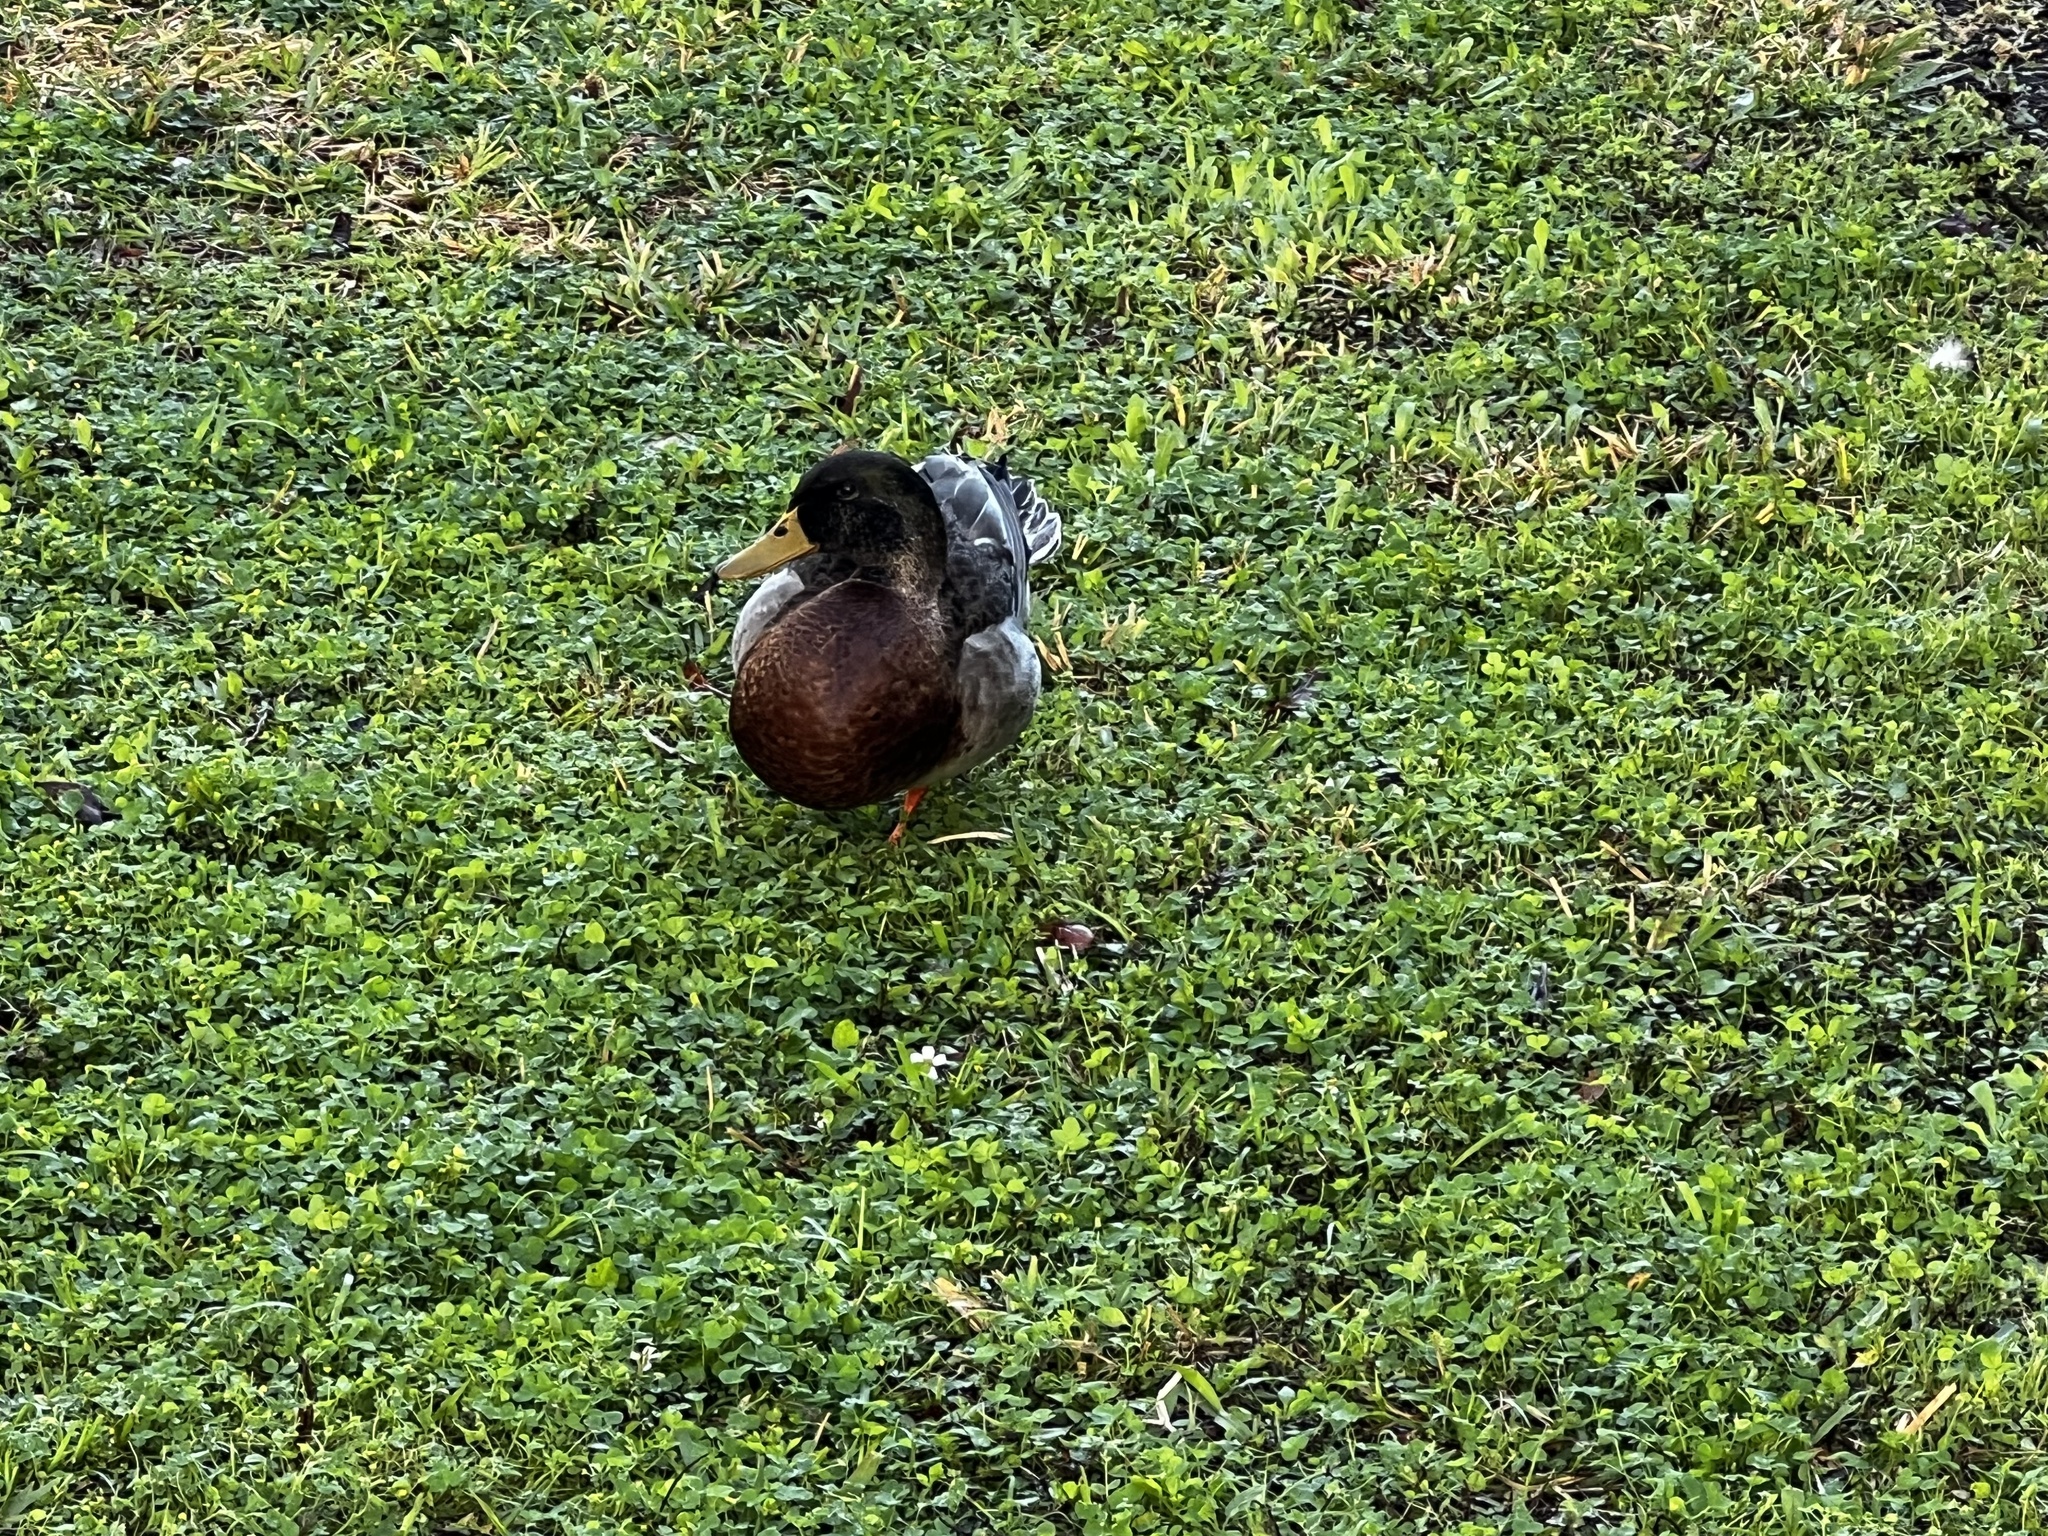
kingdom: Animalia
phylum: Chordata
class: Aves
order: Anseriformes
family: Anatidae
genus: Anas
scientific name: Anas platyrhynchos
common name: Mallard
